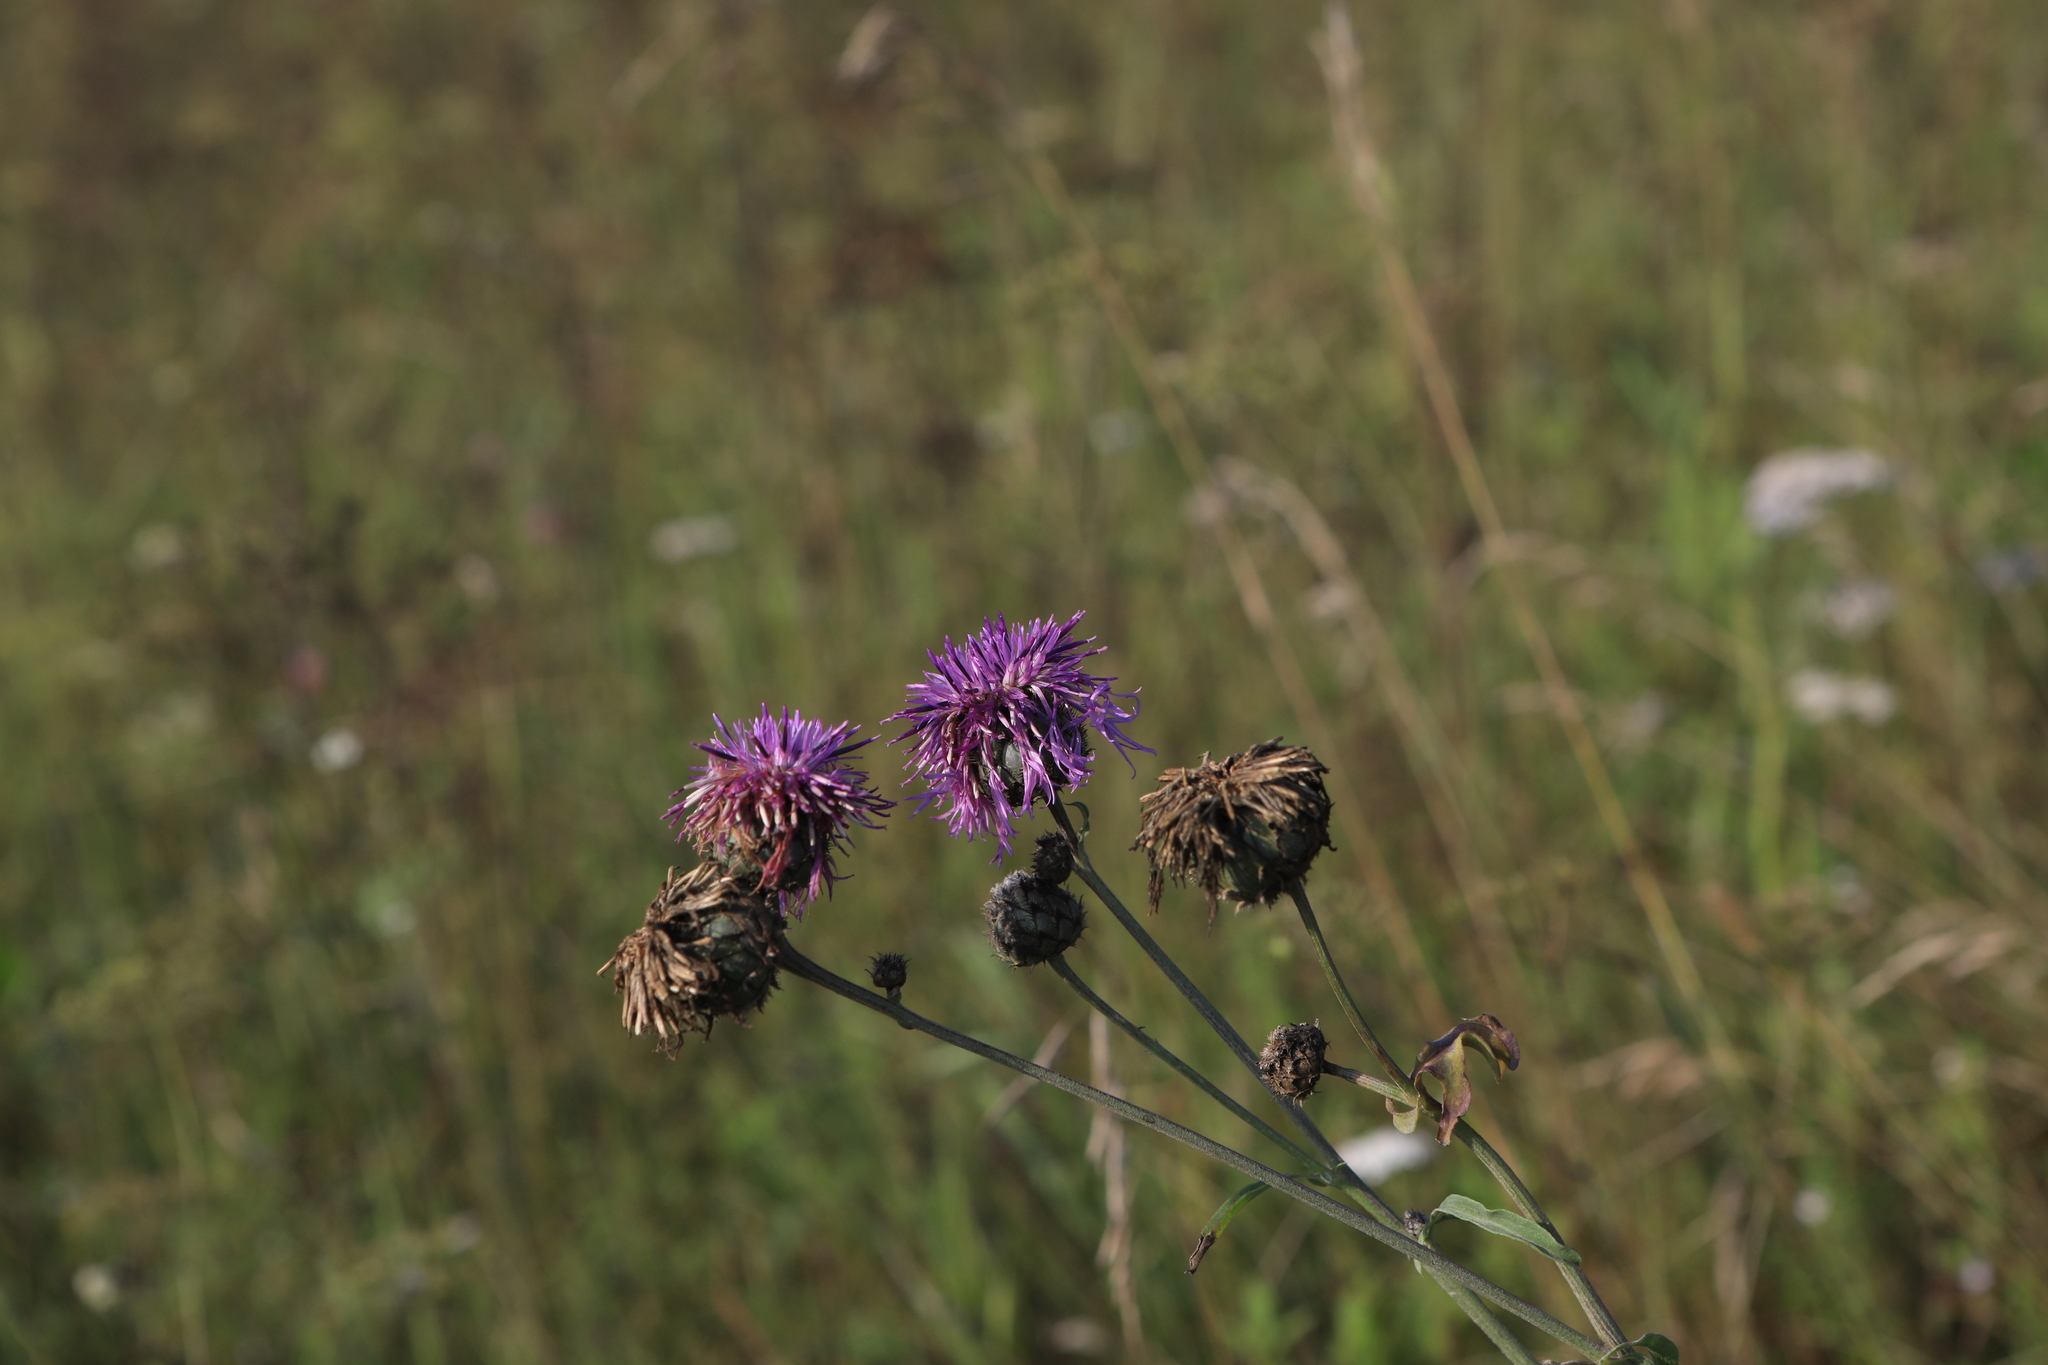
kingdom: Plantae
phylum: Tracheophyta
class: Magnoliopsida
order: Asterales
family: Asteraceae
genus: Centaurea
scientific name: Centaurea scabiosa
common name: Greater knapweed
